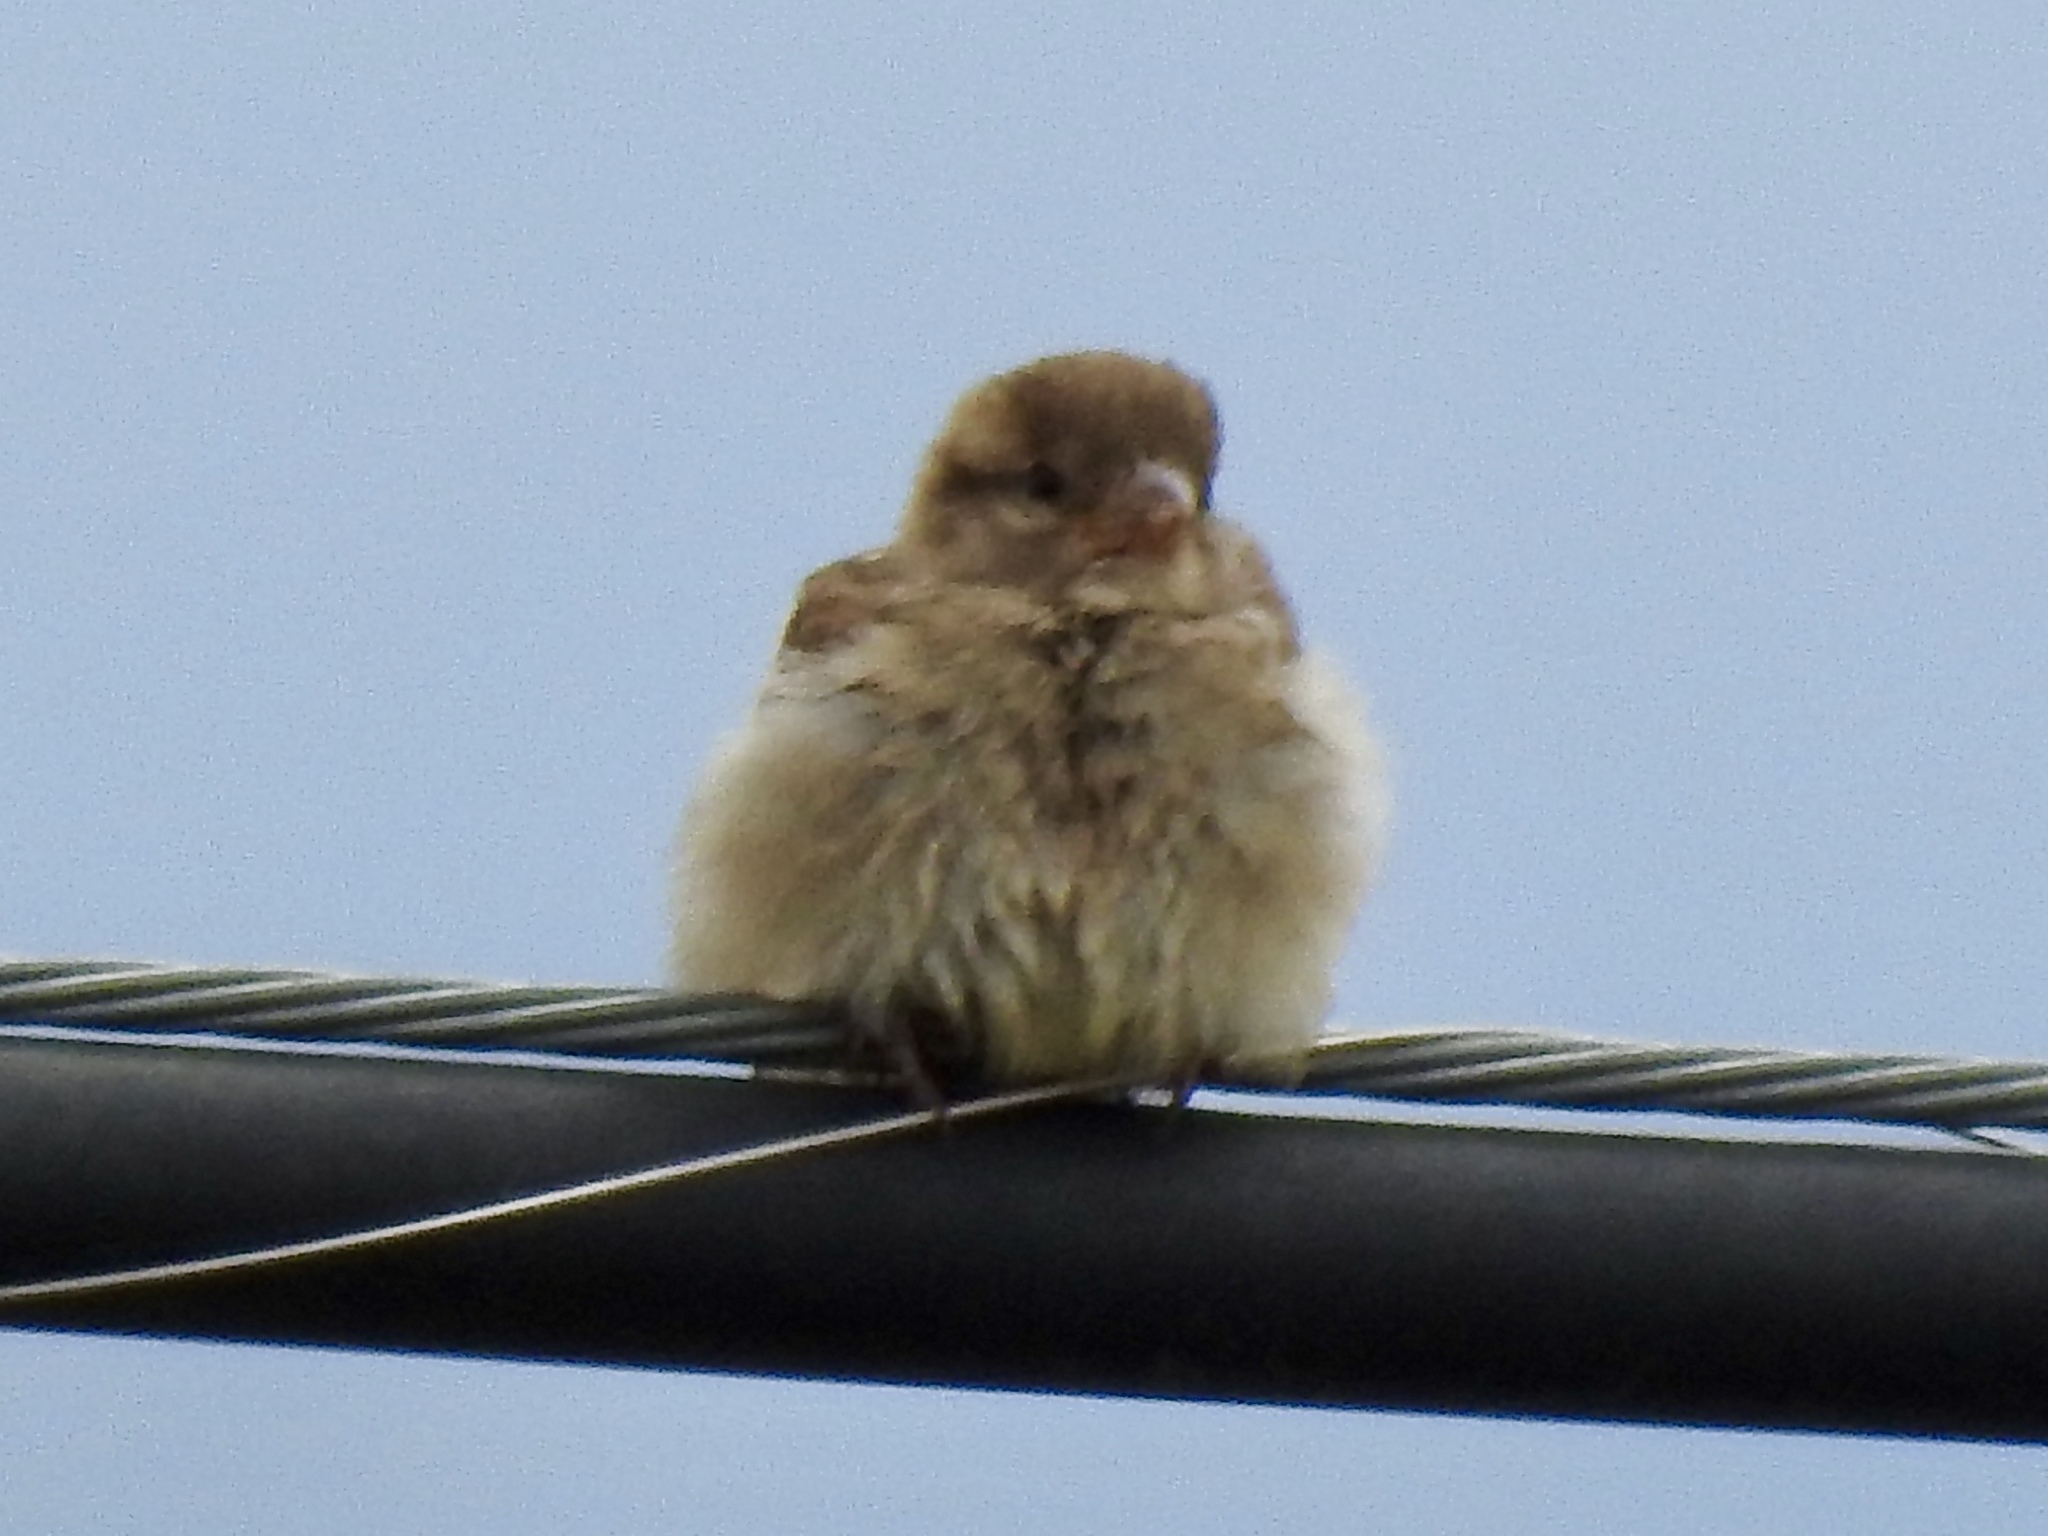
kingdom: Animalia
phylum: Chordata
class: Aves
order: Passeriformes
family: Passeridae
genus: Passer
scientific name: Passer domesticus
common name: House sparrow
